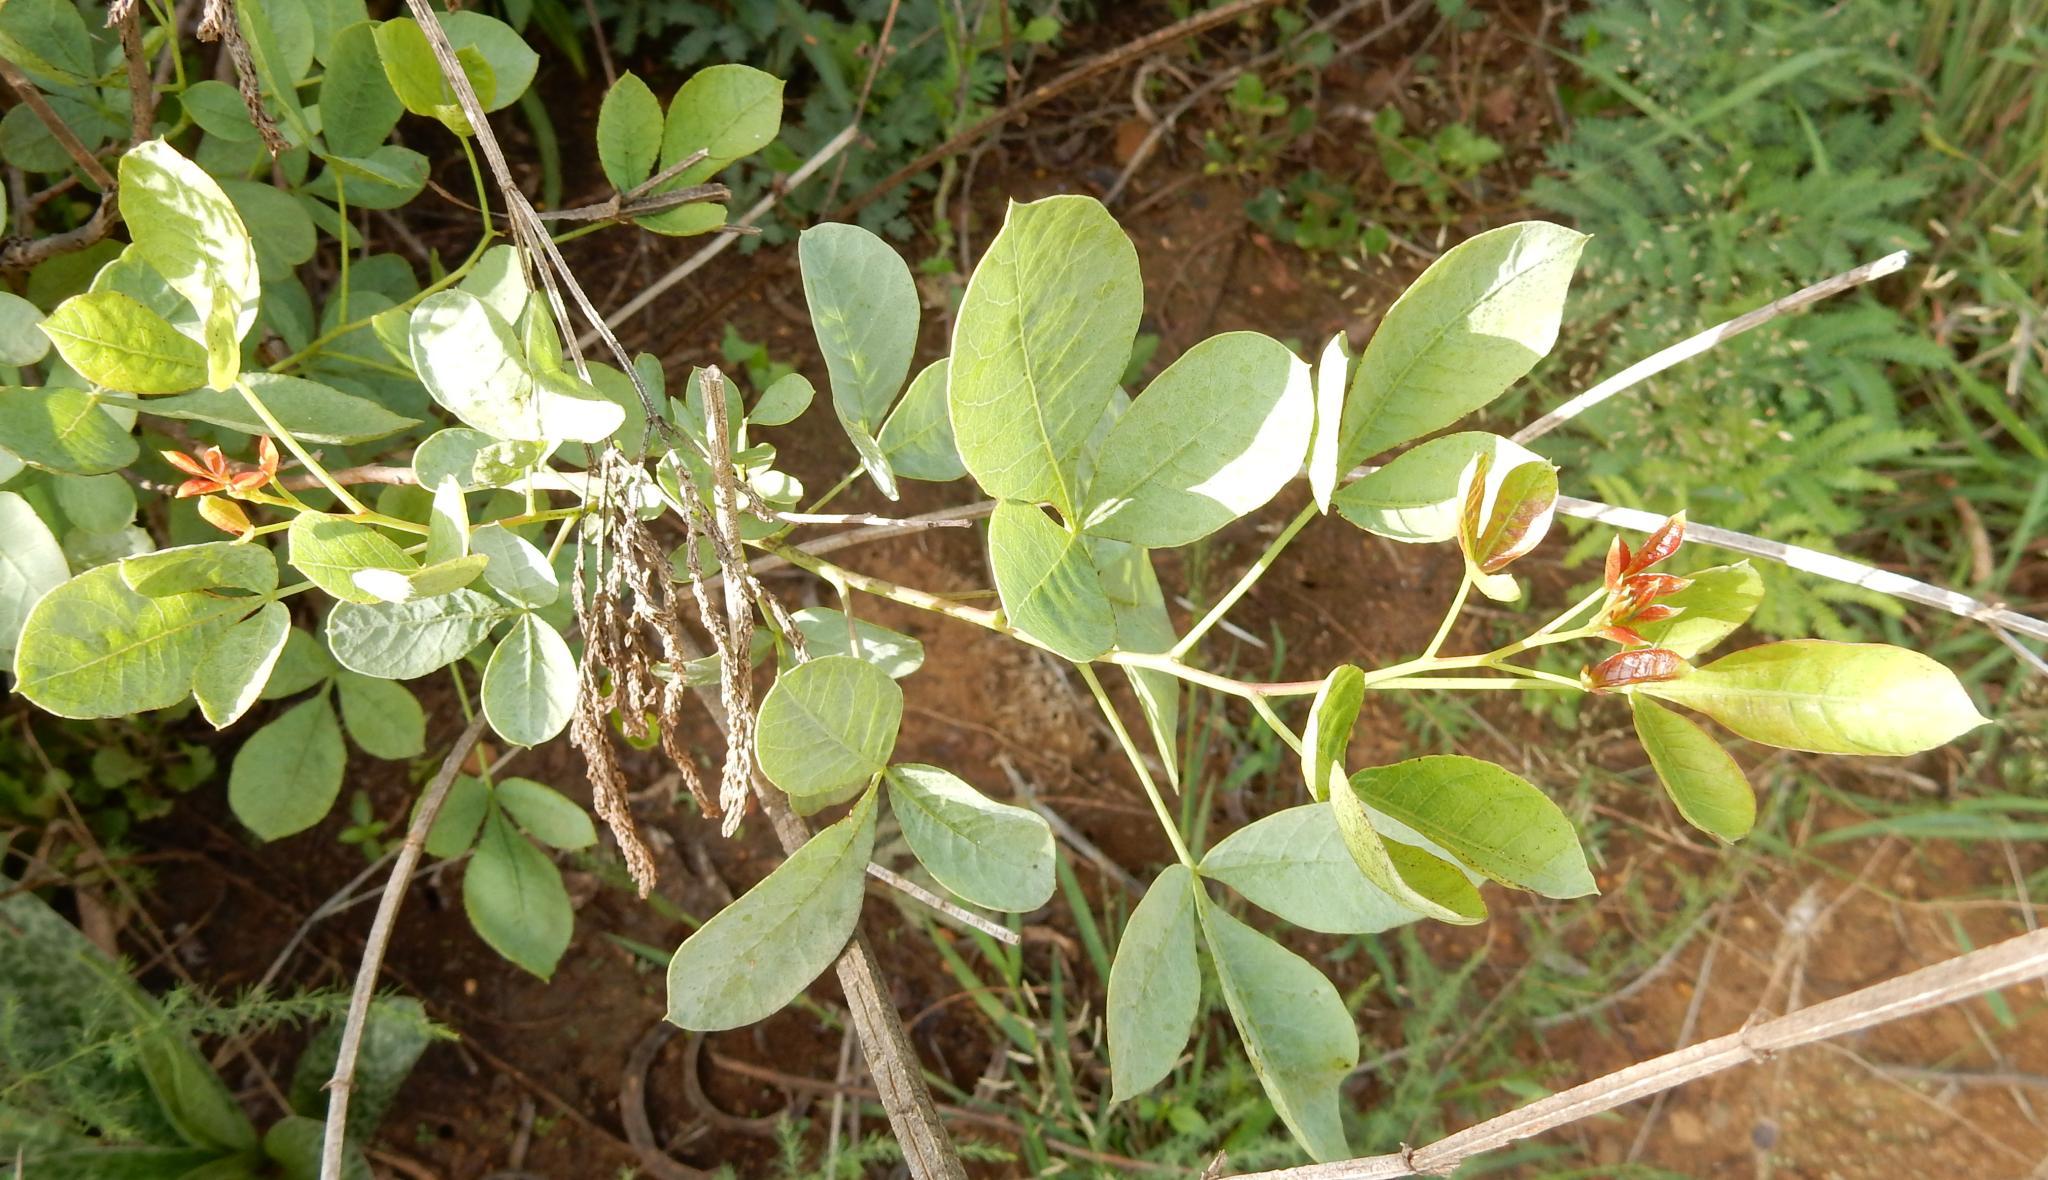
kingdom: Plantae
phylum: Tracheophyta
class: Magnoliopsida
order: Sapindales
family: Anacardiaceae
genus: Searsia
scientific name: Searsia zeyheri
